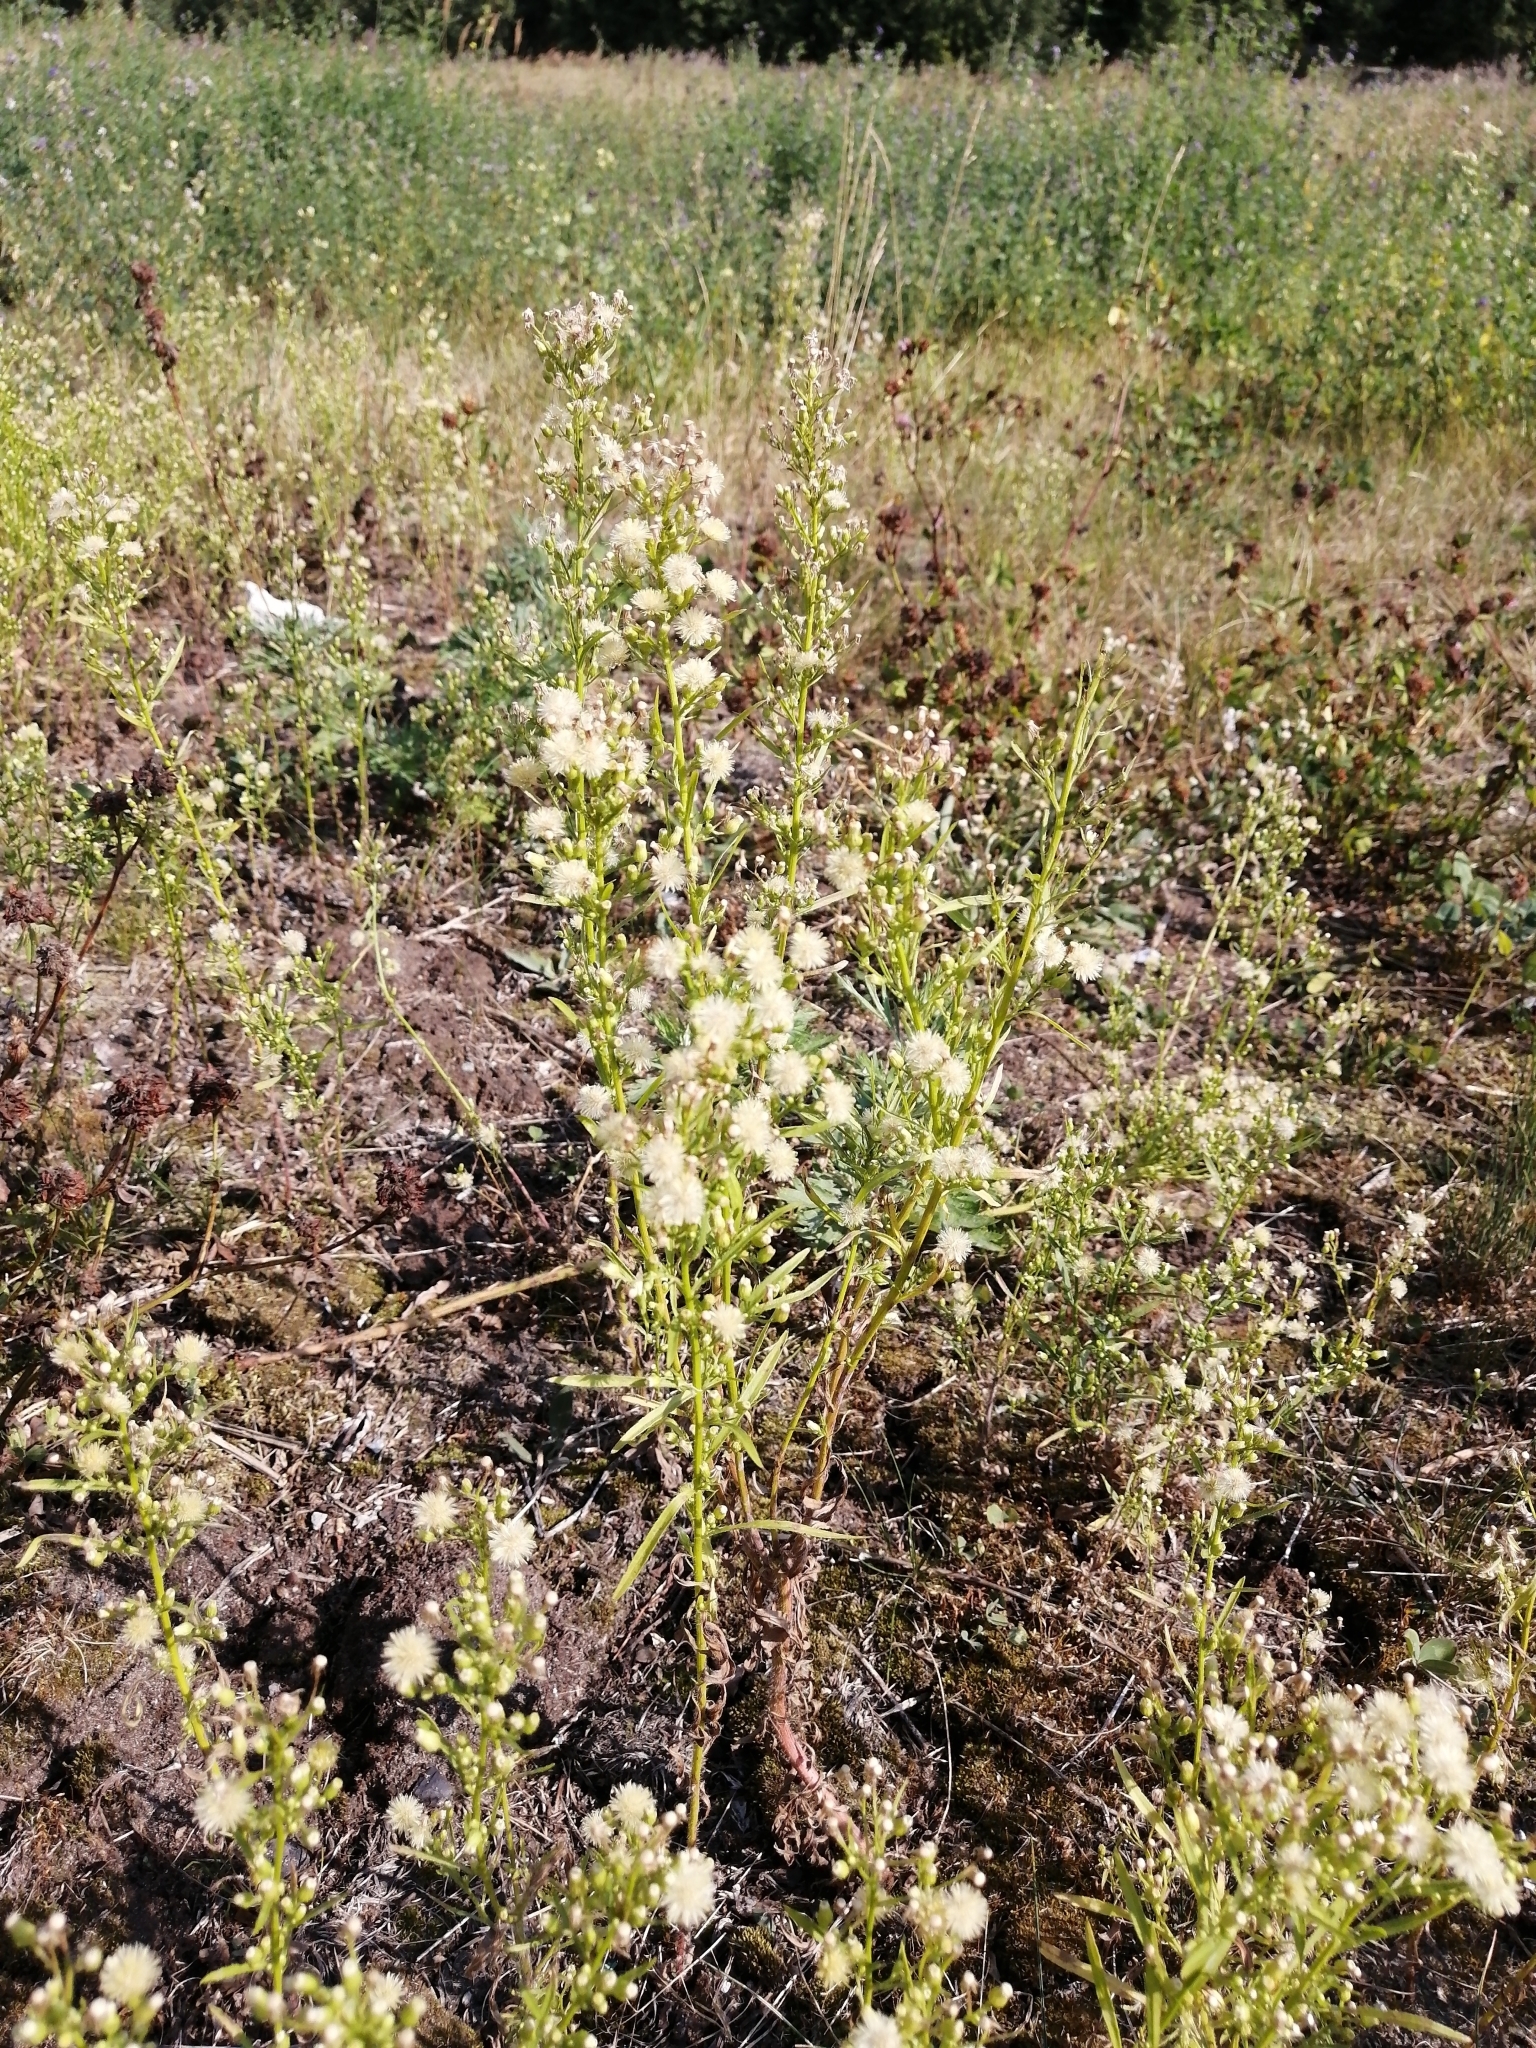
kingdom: Plantae
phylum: Tracheophyta
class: Magnoliopsida
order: Asterales
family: Asteraceae
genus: Erigeron
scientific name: Erigeron canadensis
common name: Canadian fleabane
